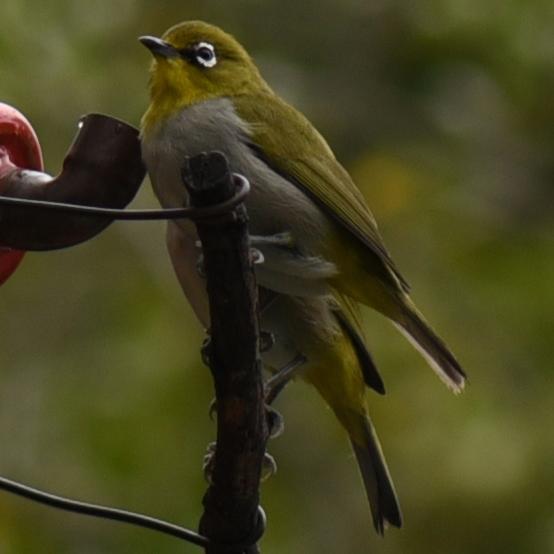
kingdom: Animalia
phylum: Chordata
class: Aves
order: Passeriformes
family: Zosteropidae
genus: Zosterops
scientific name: Zosterops virens
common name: Cape white-eye
